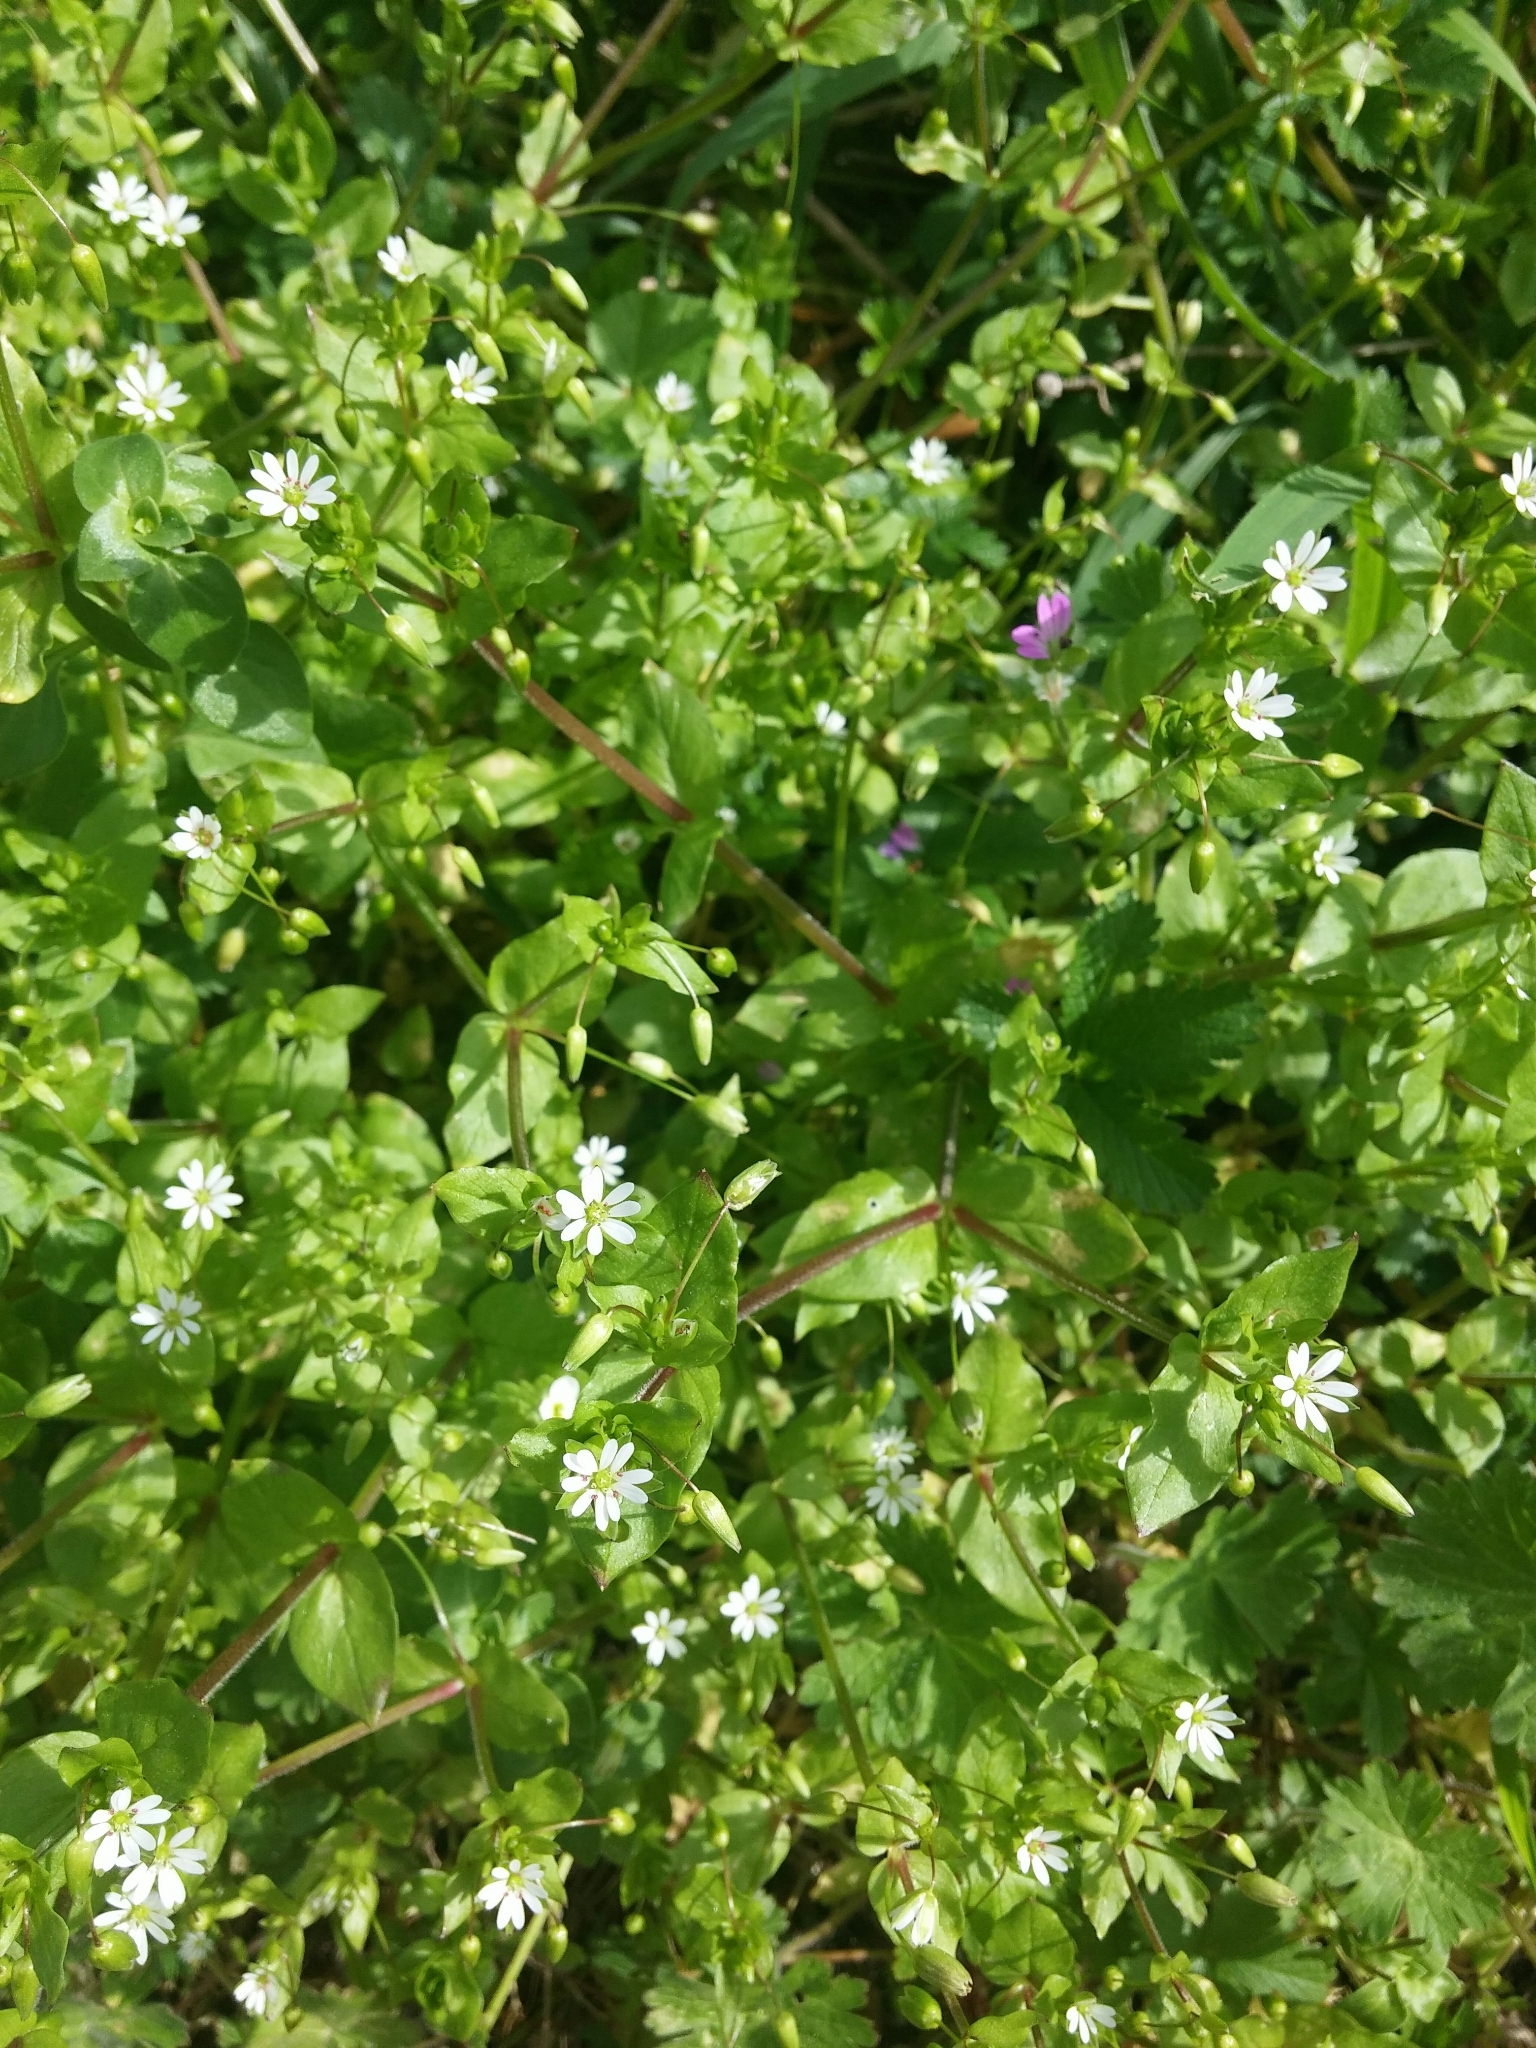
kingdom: Plantae
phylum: Tracheophyta
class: Magnoliopsida
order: Caryophyllales
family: Caryophyllaceae
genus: Stellaria
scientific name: Stellaria media
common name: Common chickweed
